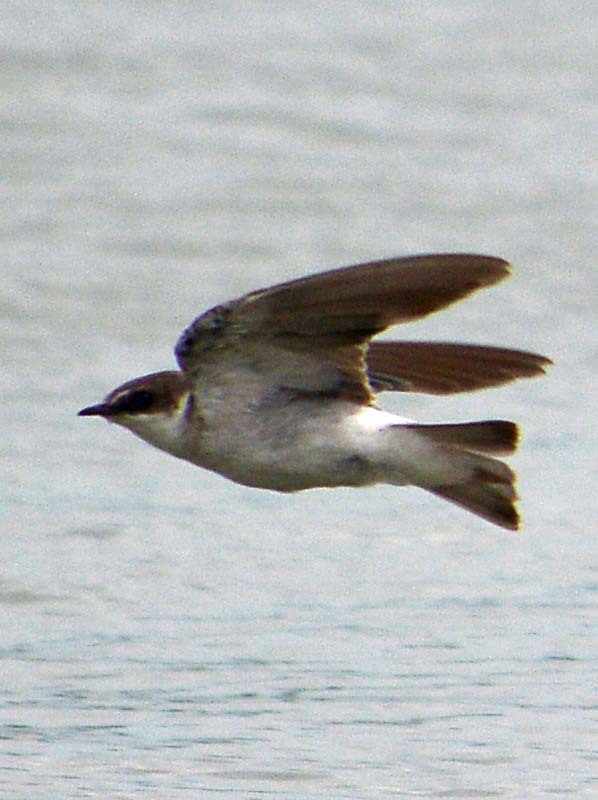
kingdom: Animalia
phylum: Chordata
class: Aves
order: Passeriformes
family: Hirundinidae
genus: Tachycineta
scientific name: Tachycineta albilinea
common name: Mangrove swallow
